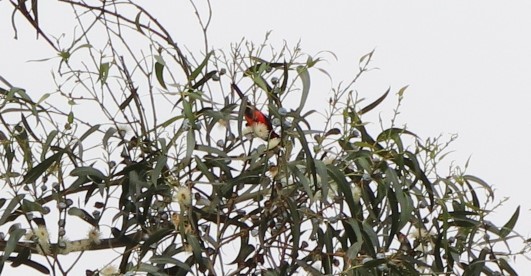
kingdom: Animalia
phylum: Chordata
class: Aves
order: Passeriformes
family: Thraupidae
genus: Anisognathus
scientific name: Anisognathus igniventris
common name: Scarlet-bellied mountain tanager
